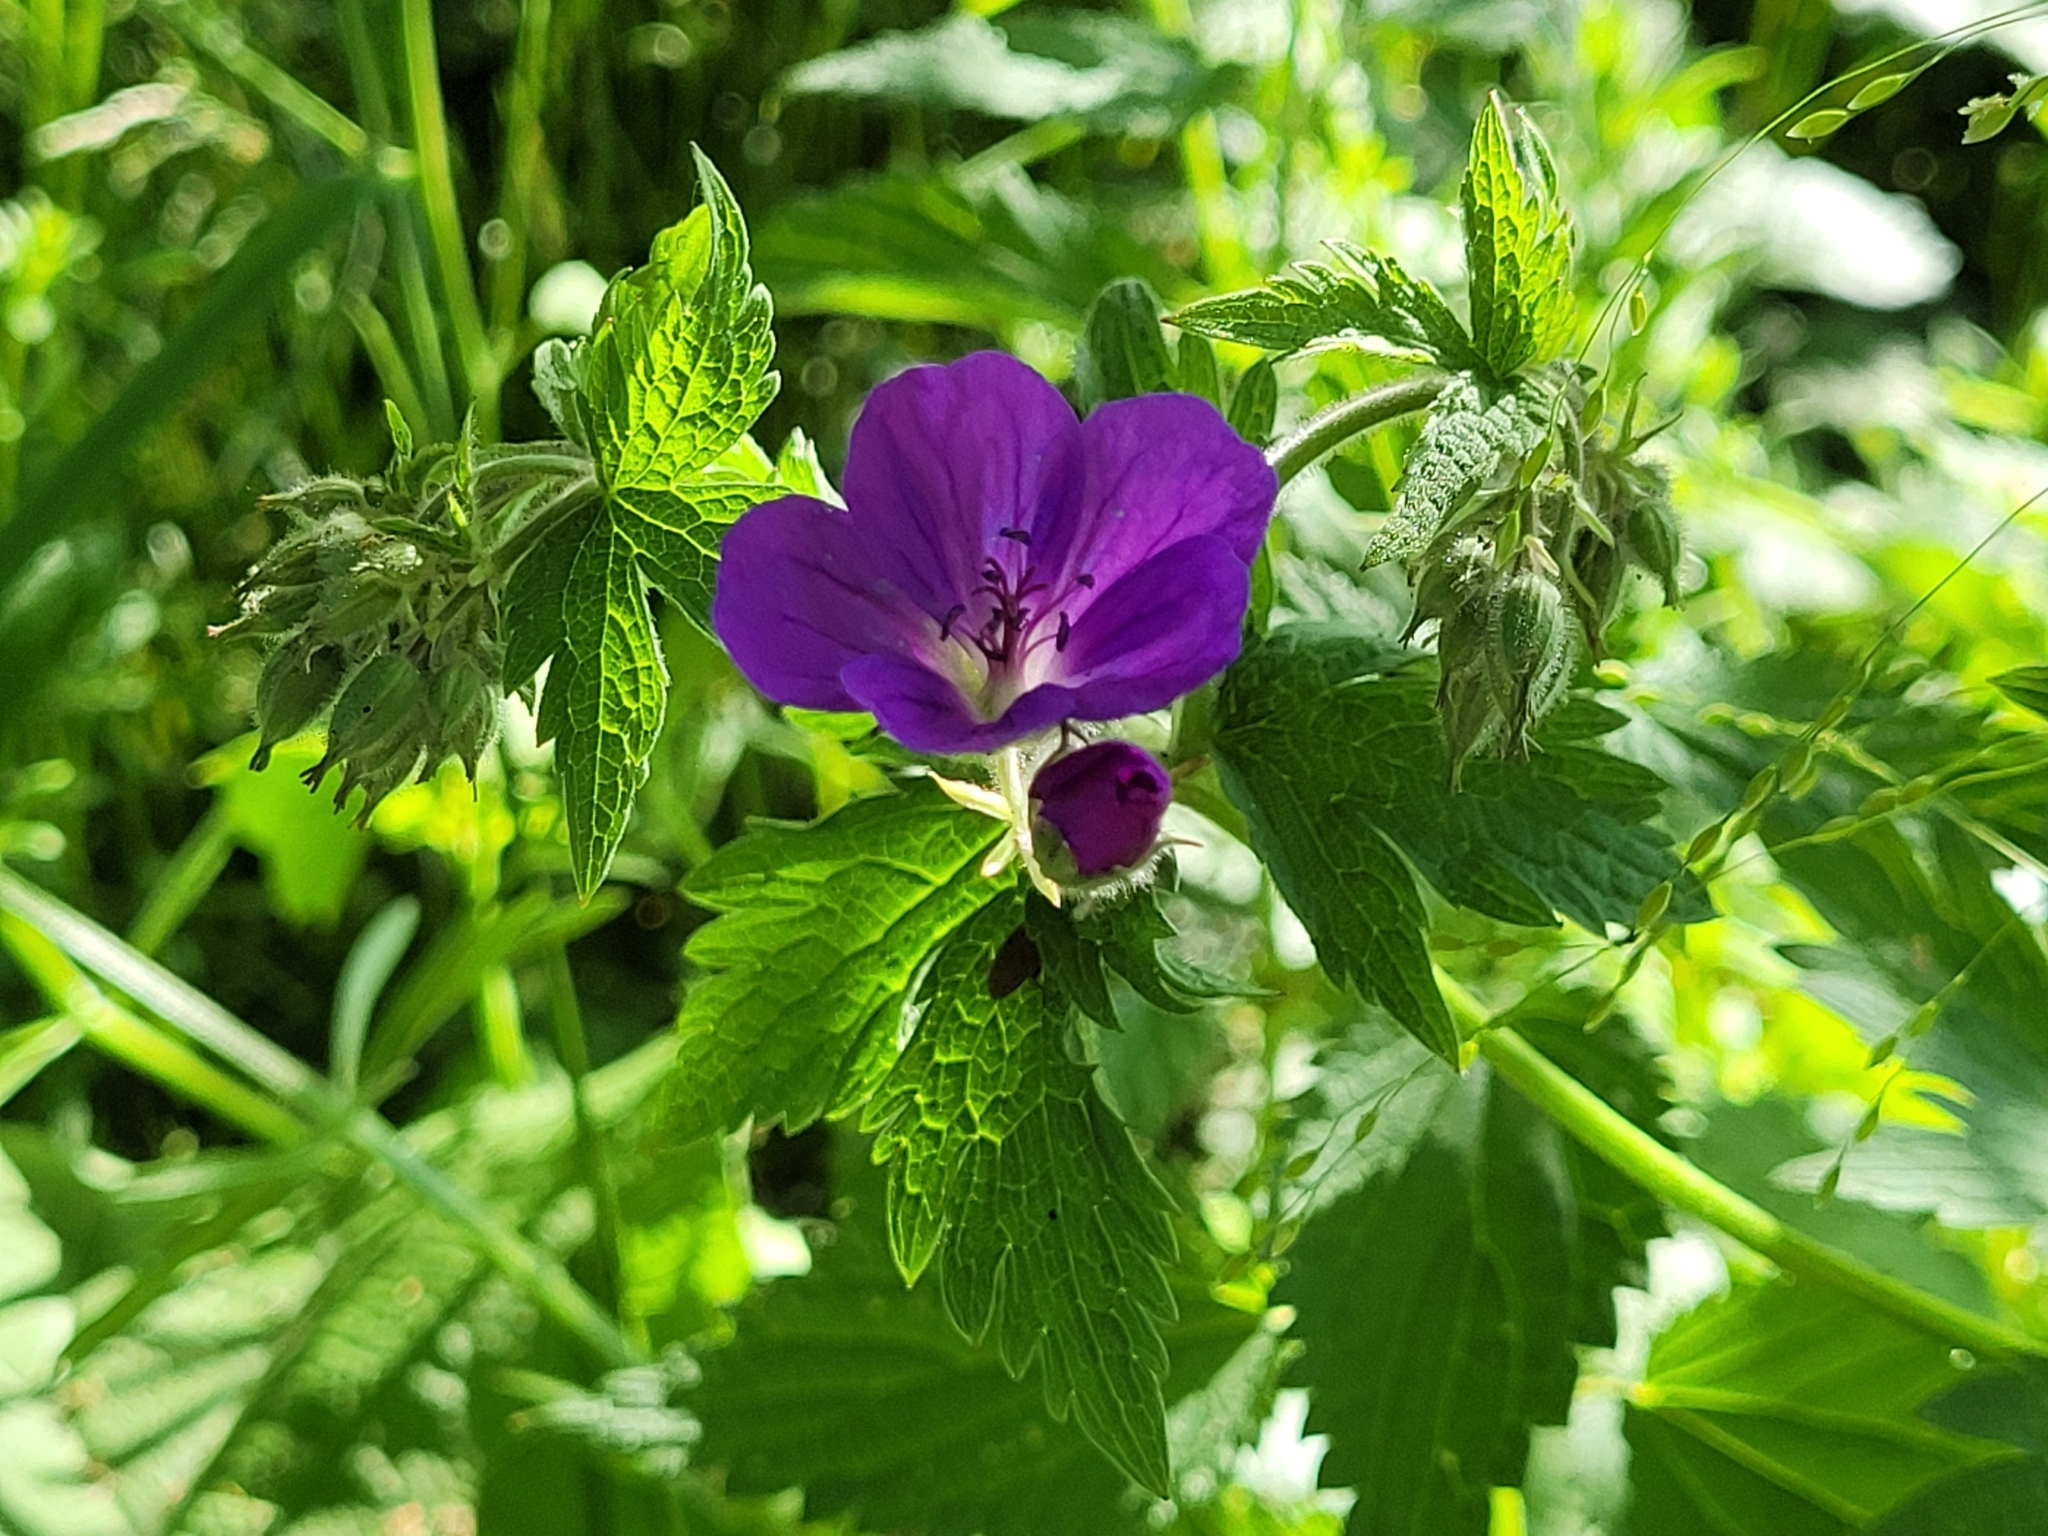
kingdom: Plantae
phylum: Tracheophyta
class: Magnoliopsida
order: Geraniales
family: Geraniaceae
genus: Geranium
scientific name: Geranium sylvaticum
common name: Wood crane's-bill
